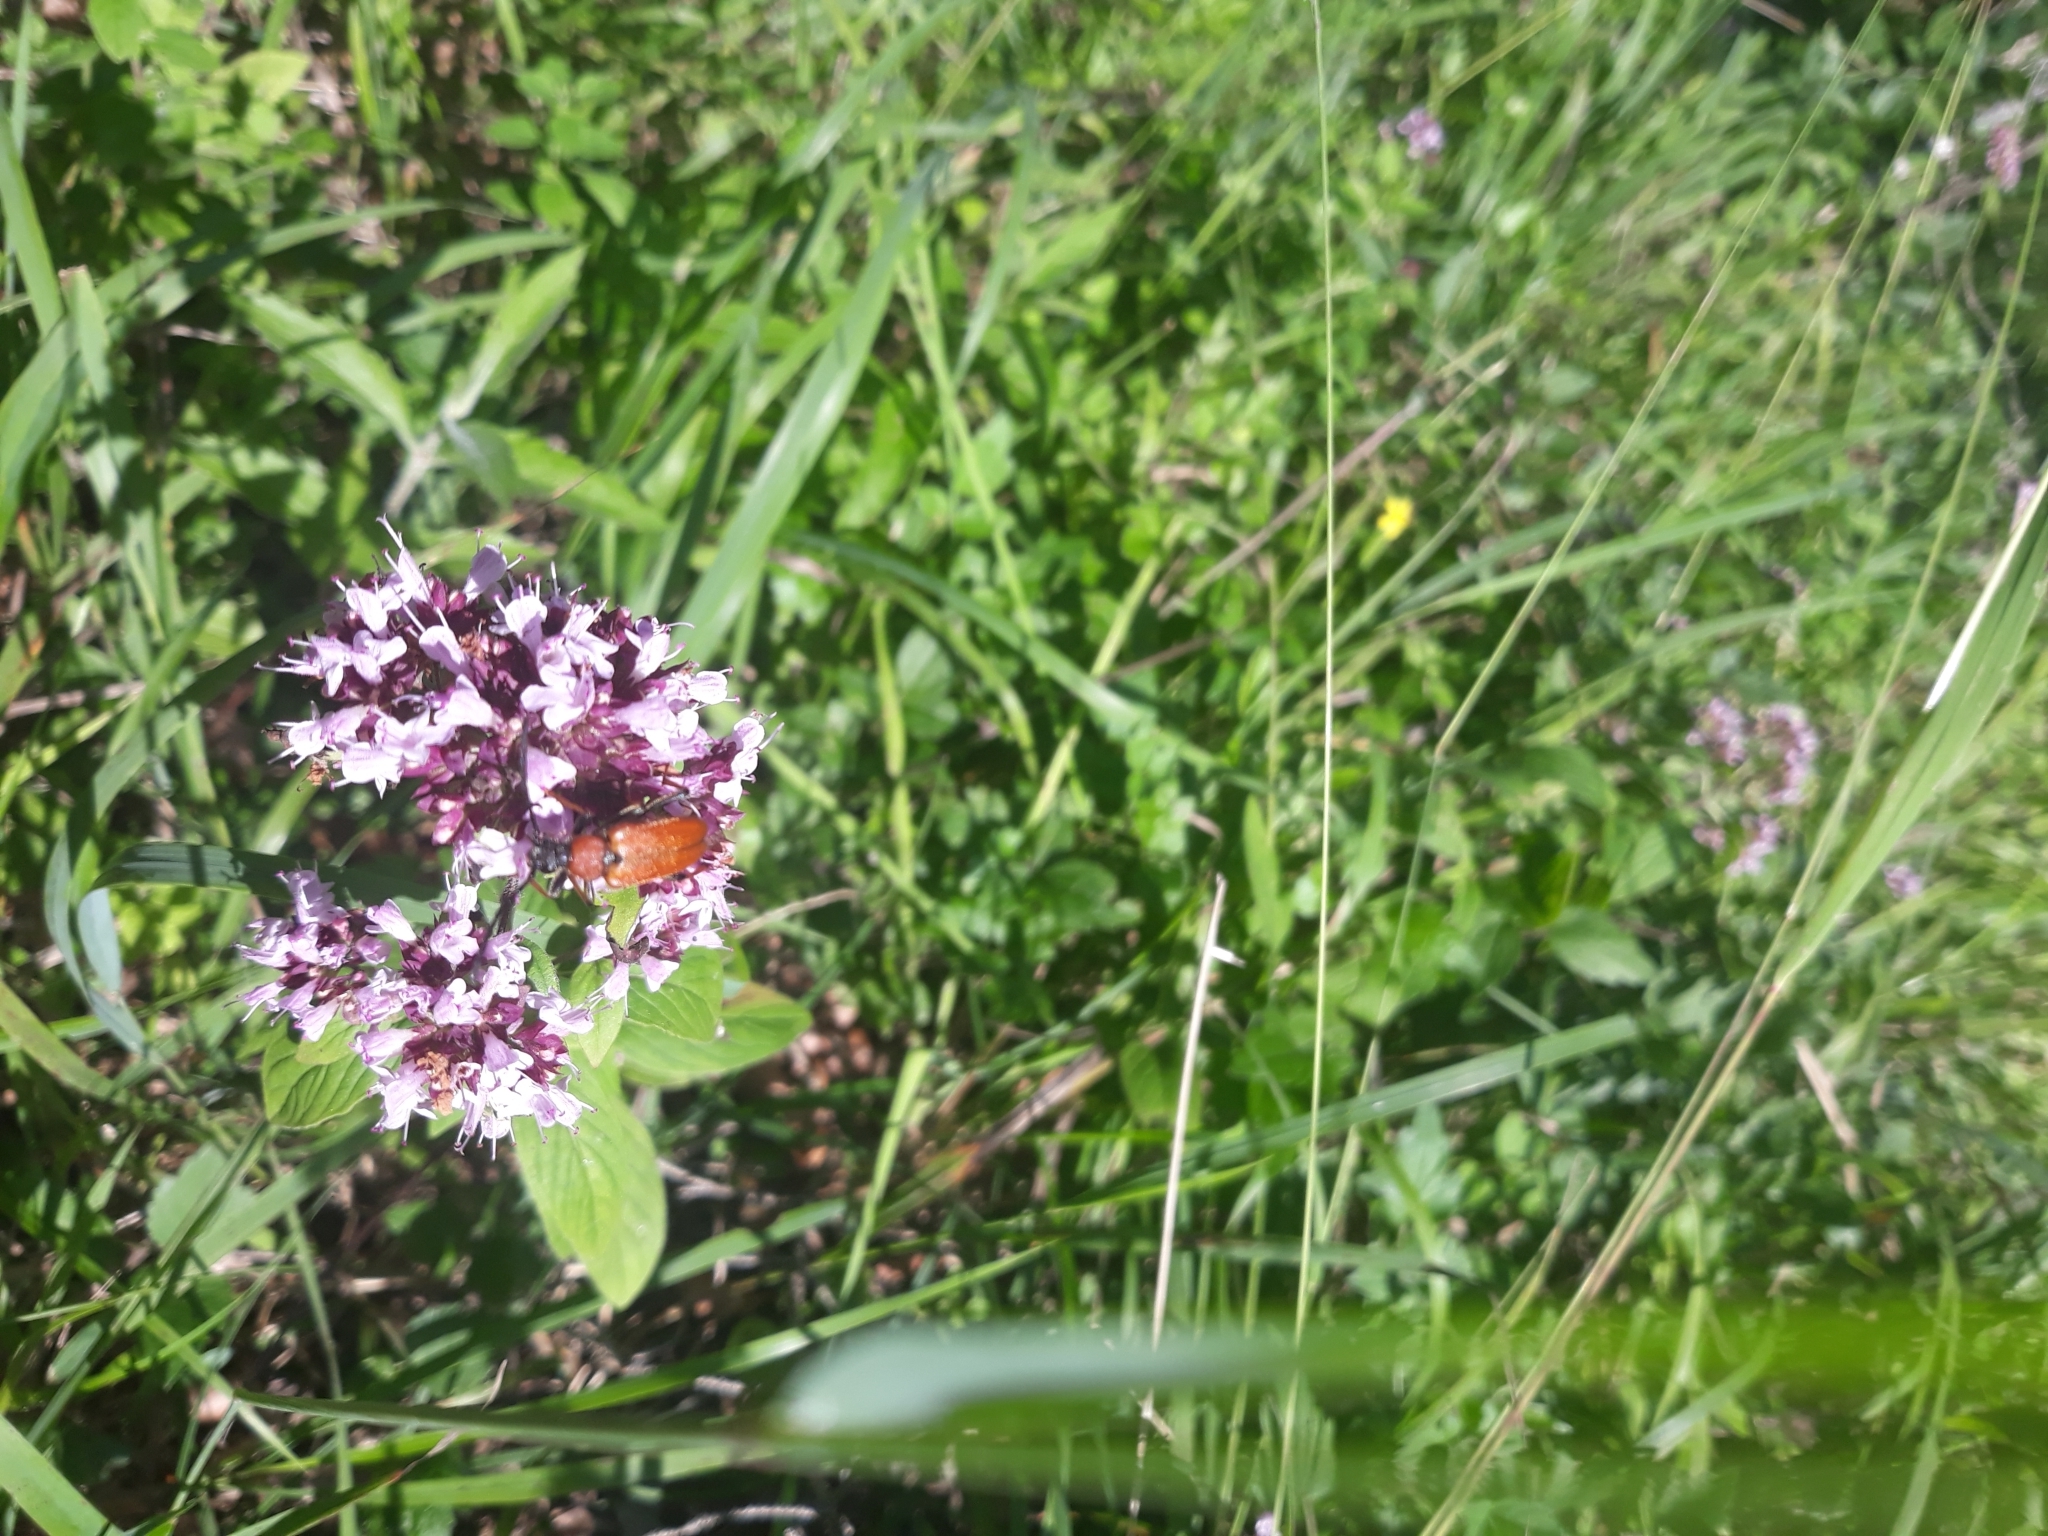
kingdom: Animalia
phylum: Arthropoda
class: Insecta
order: Coleoptera
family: Cerambycidae
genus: Stictoleptura
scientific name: Stictoleptura rubra
